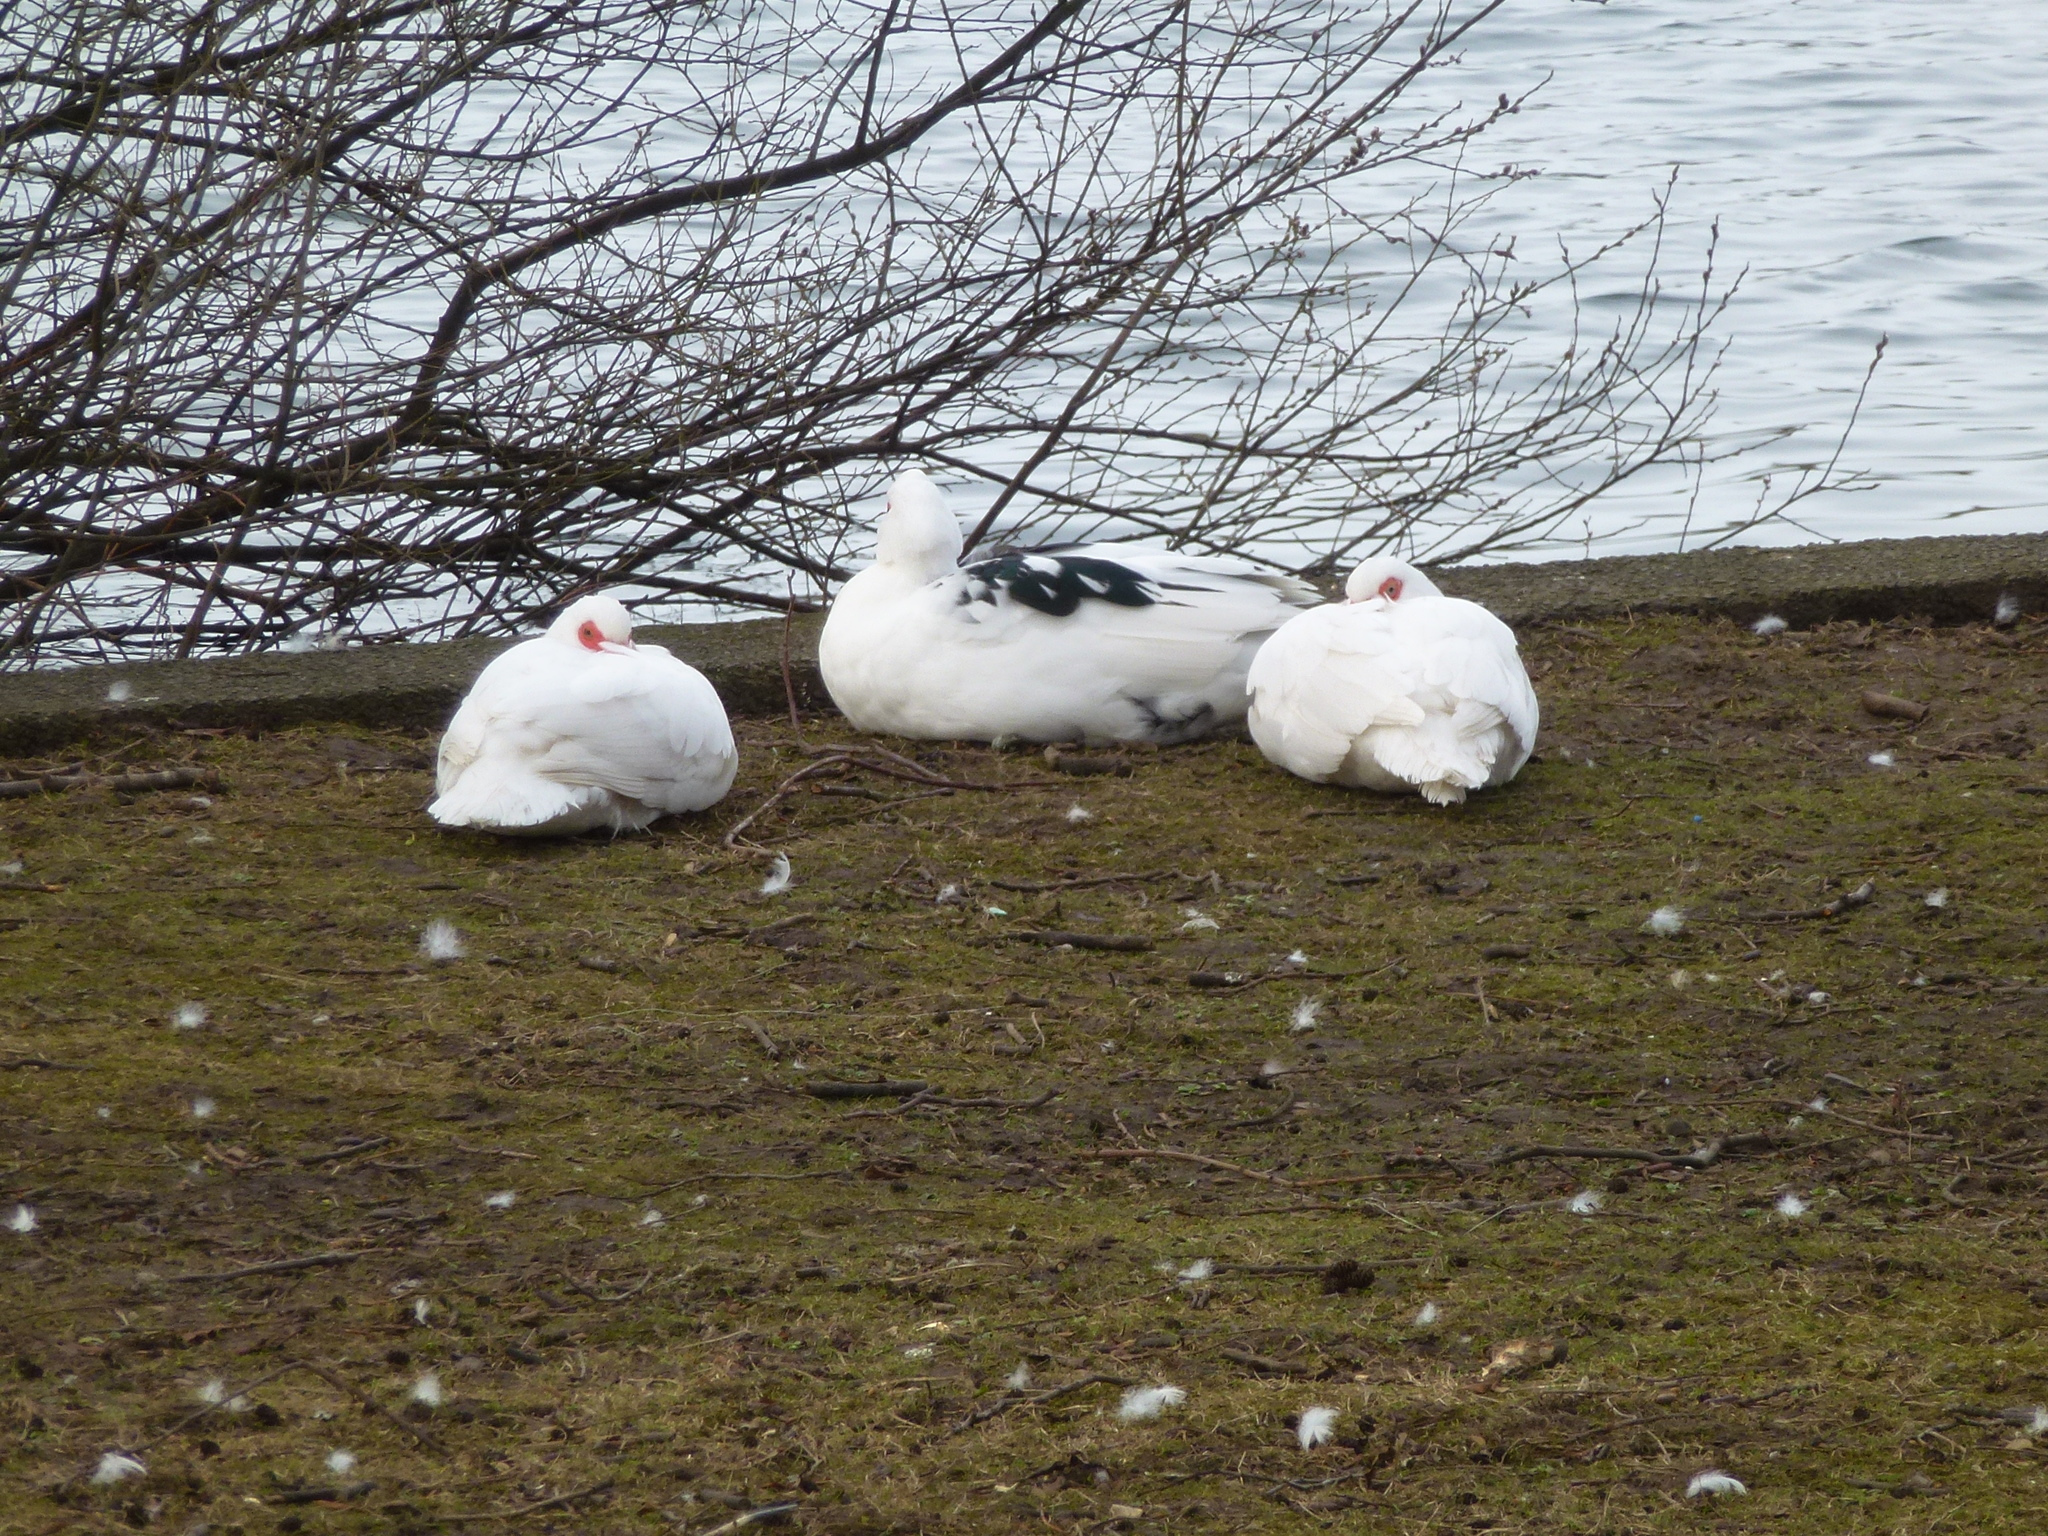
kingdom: Animalia
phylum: Chordata
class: Aves
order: Anseriformes
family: Anatidae
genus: Cairina
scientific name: Cairina moschata
